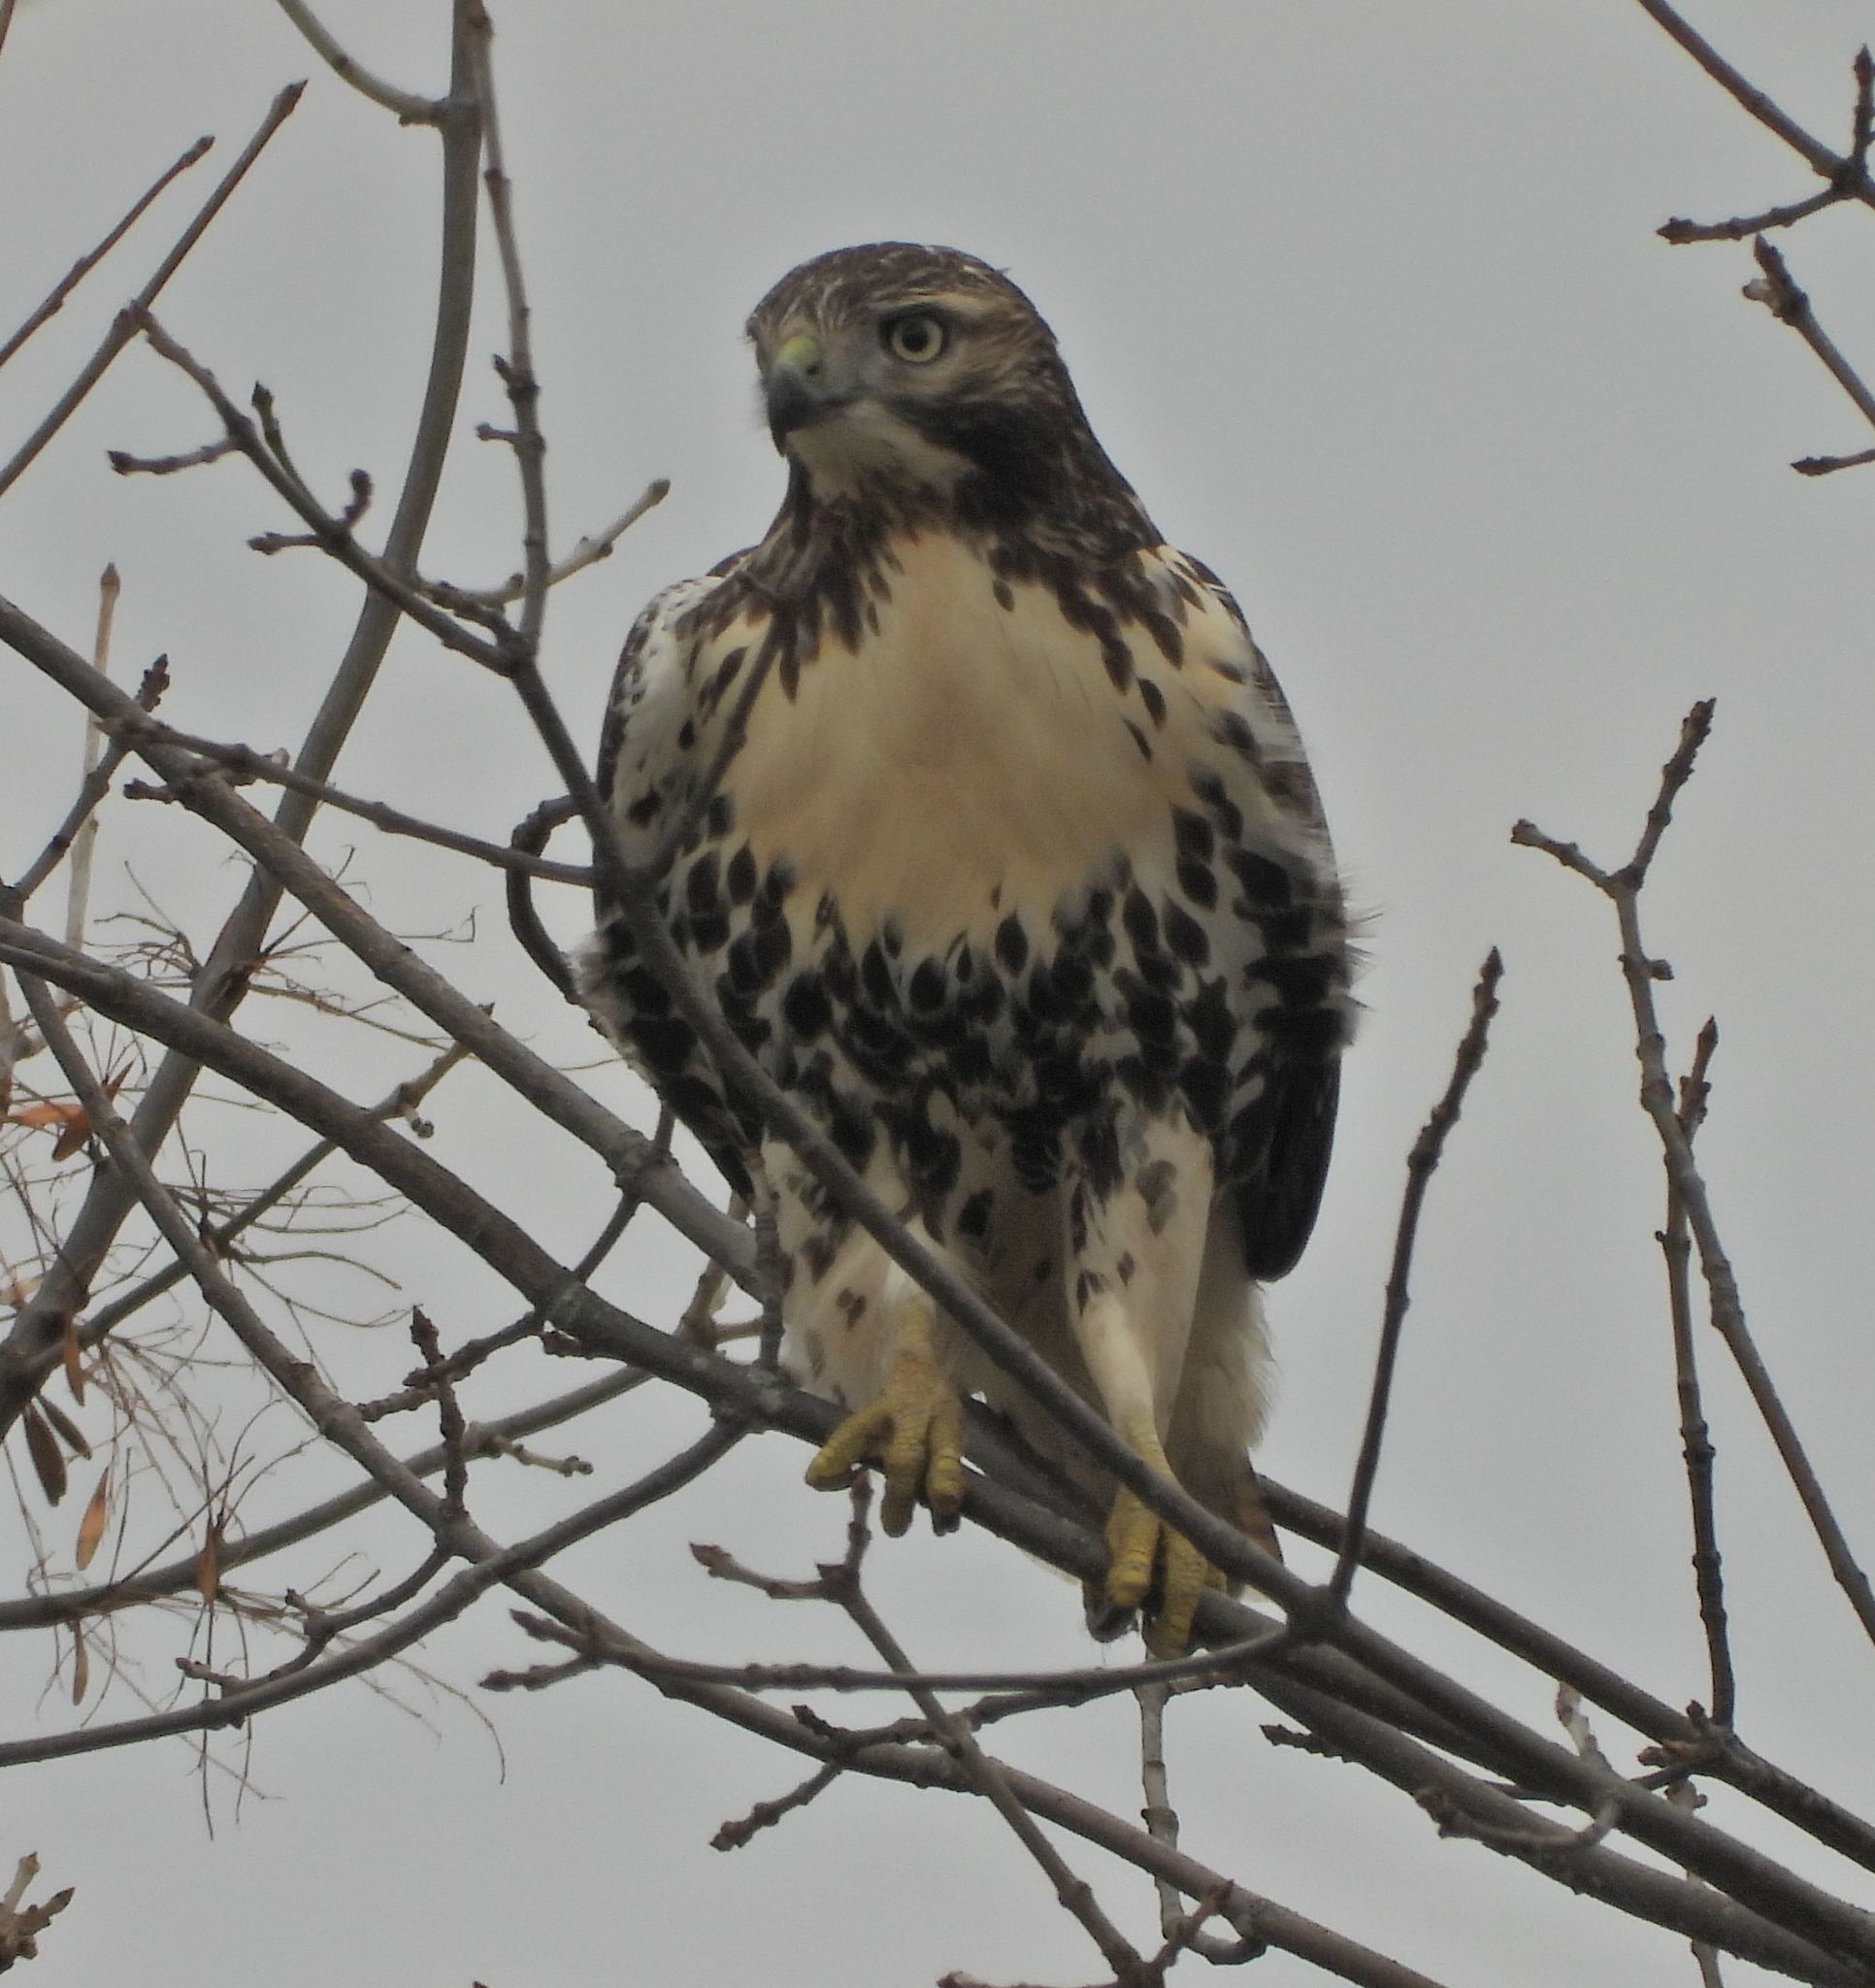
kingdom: Animalia
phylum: Chordata
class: Aves
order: Accipitriformes
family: Accipitridae
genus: Buteo
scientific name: Buteo jamaicensis
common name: Red-tailed hawk
